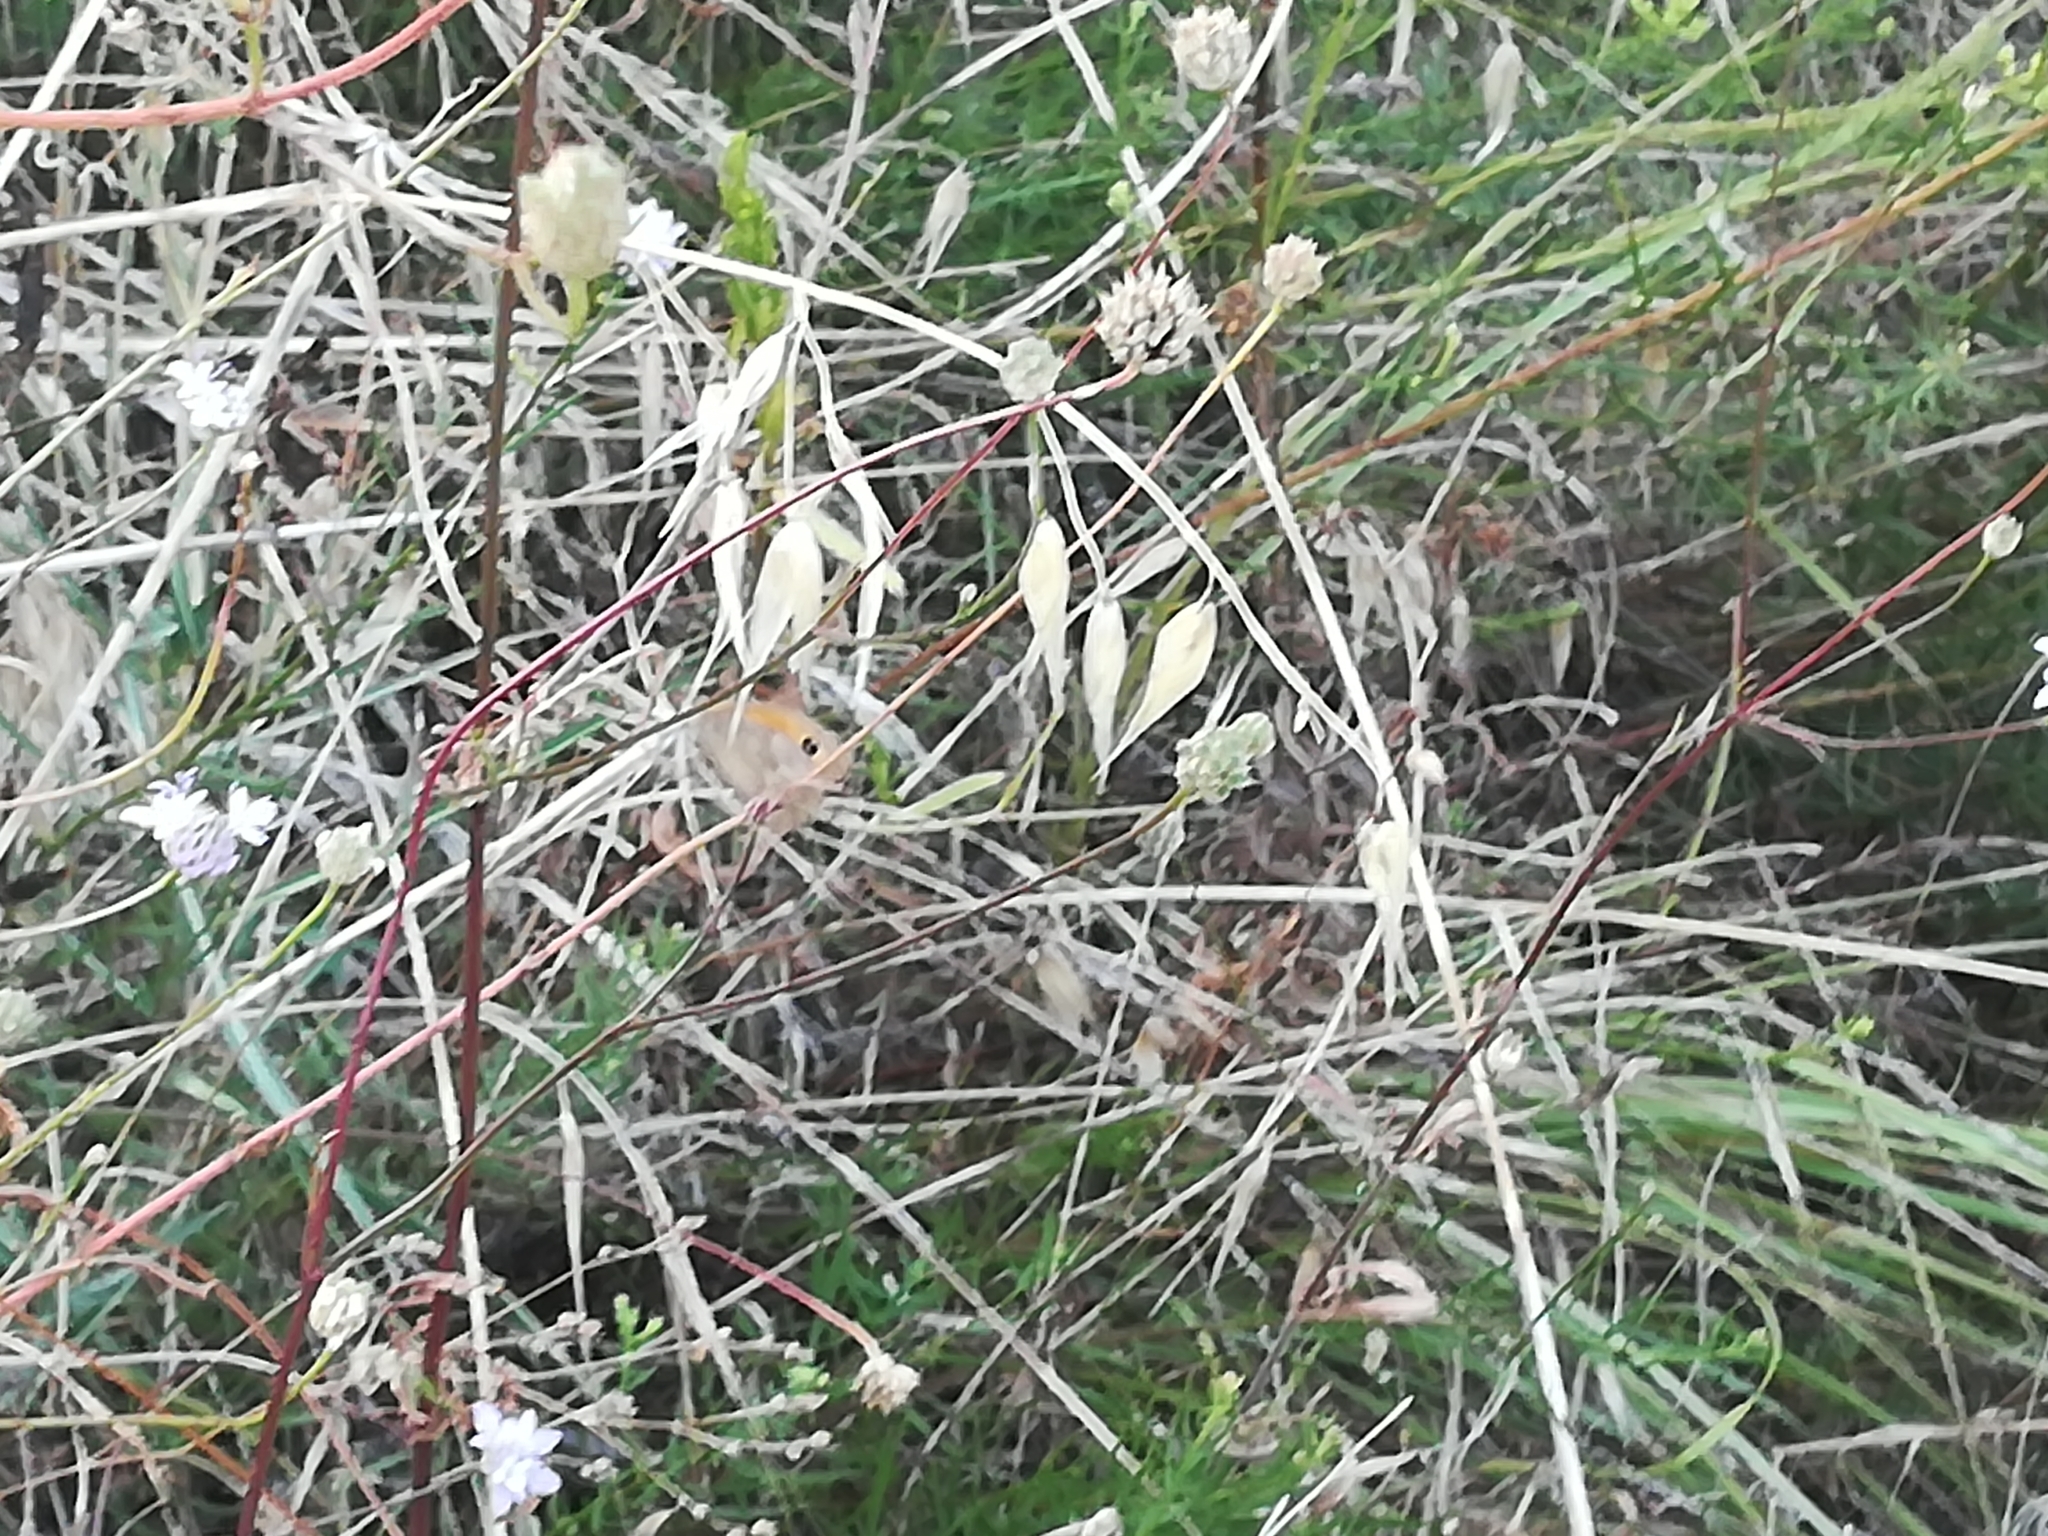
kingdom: Animalia
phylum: Arthropoda
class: Insecta
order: Lepidoptera
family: Nymphalidae
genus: Maniola
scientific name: Maniola jurtina
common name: Meadow brown
